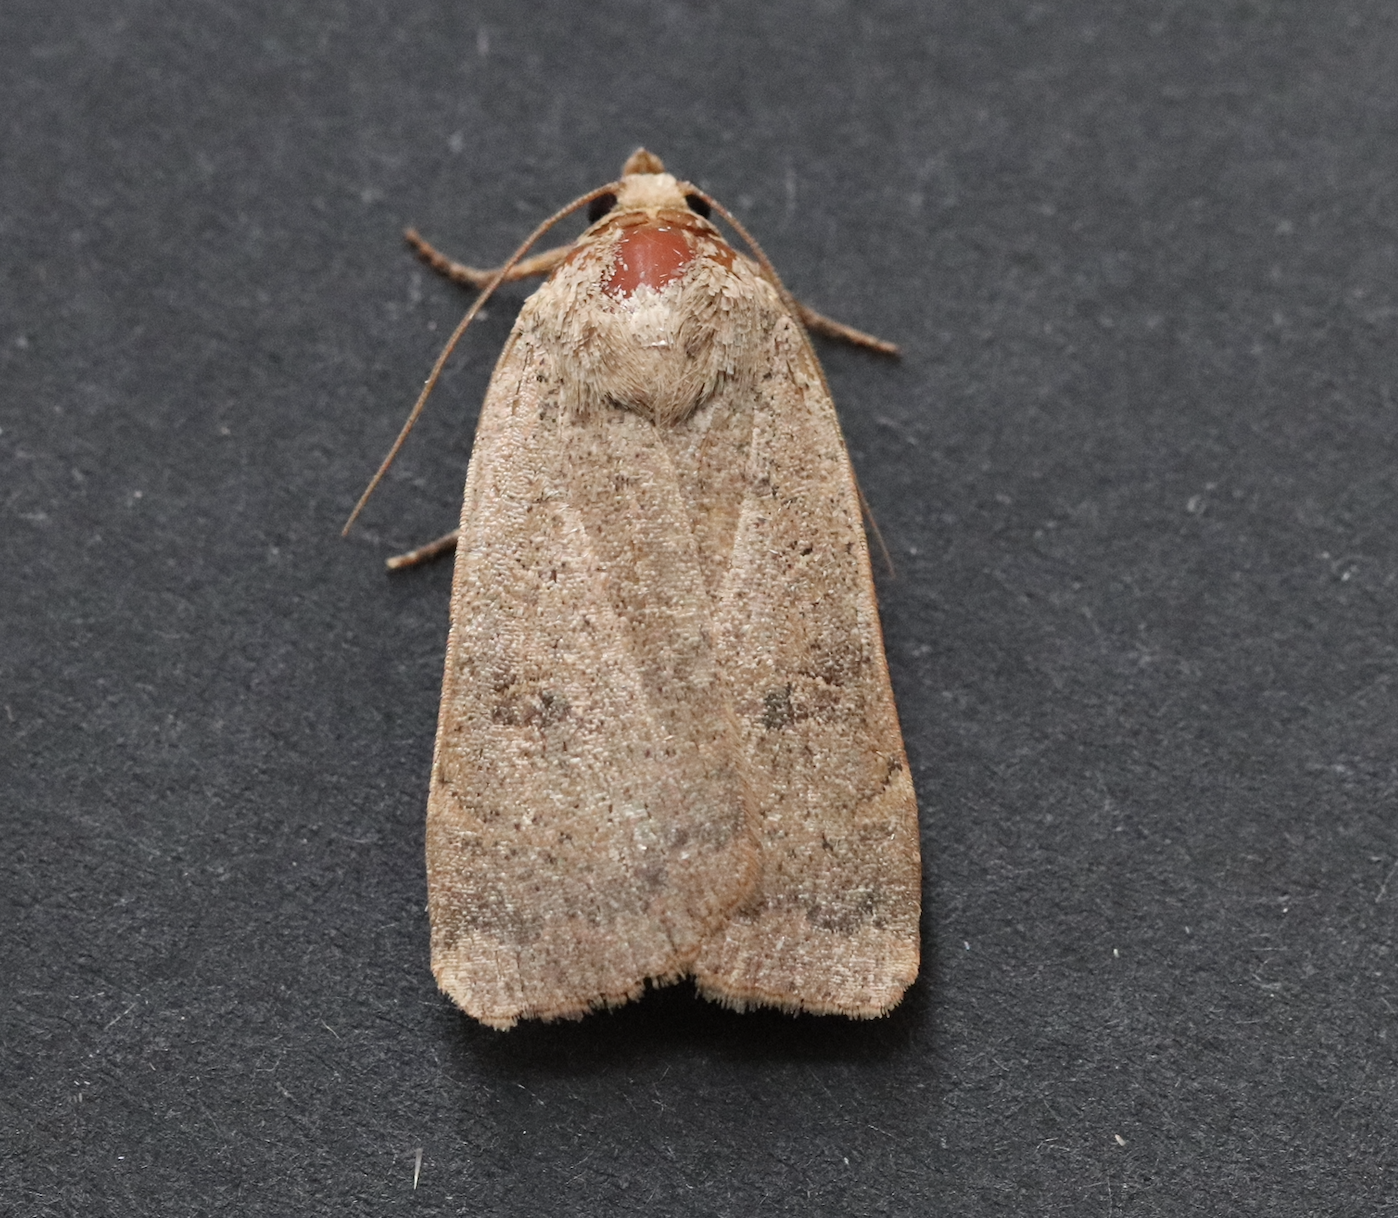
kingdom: Animalia
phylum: Arthropoda
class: Insecta
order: Lepidoptera
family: Noctuidae
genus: Noctua
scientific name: Noctua comes
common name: Lesser yellow underwing
